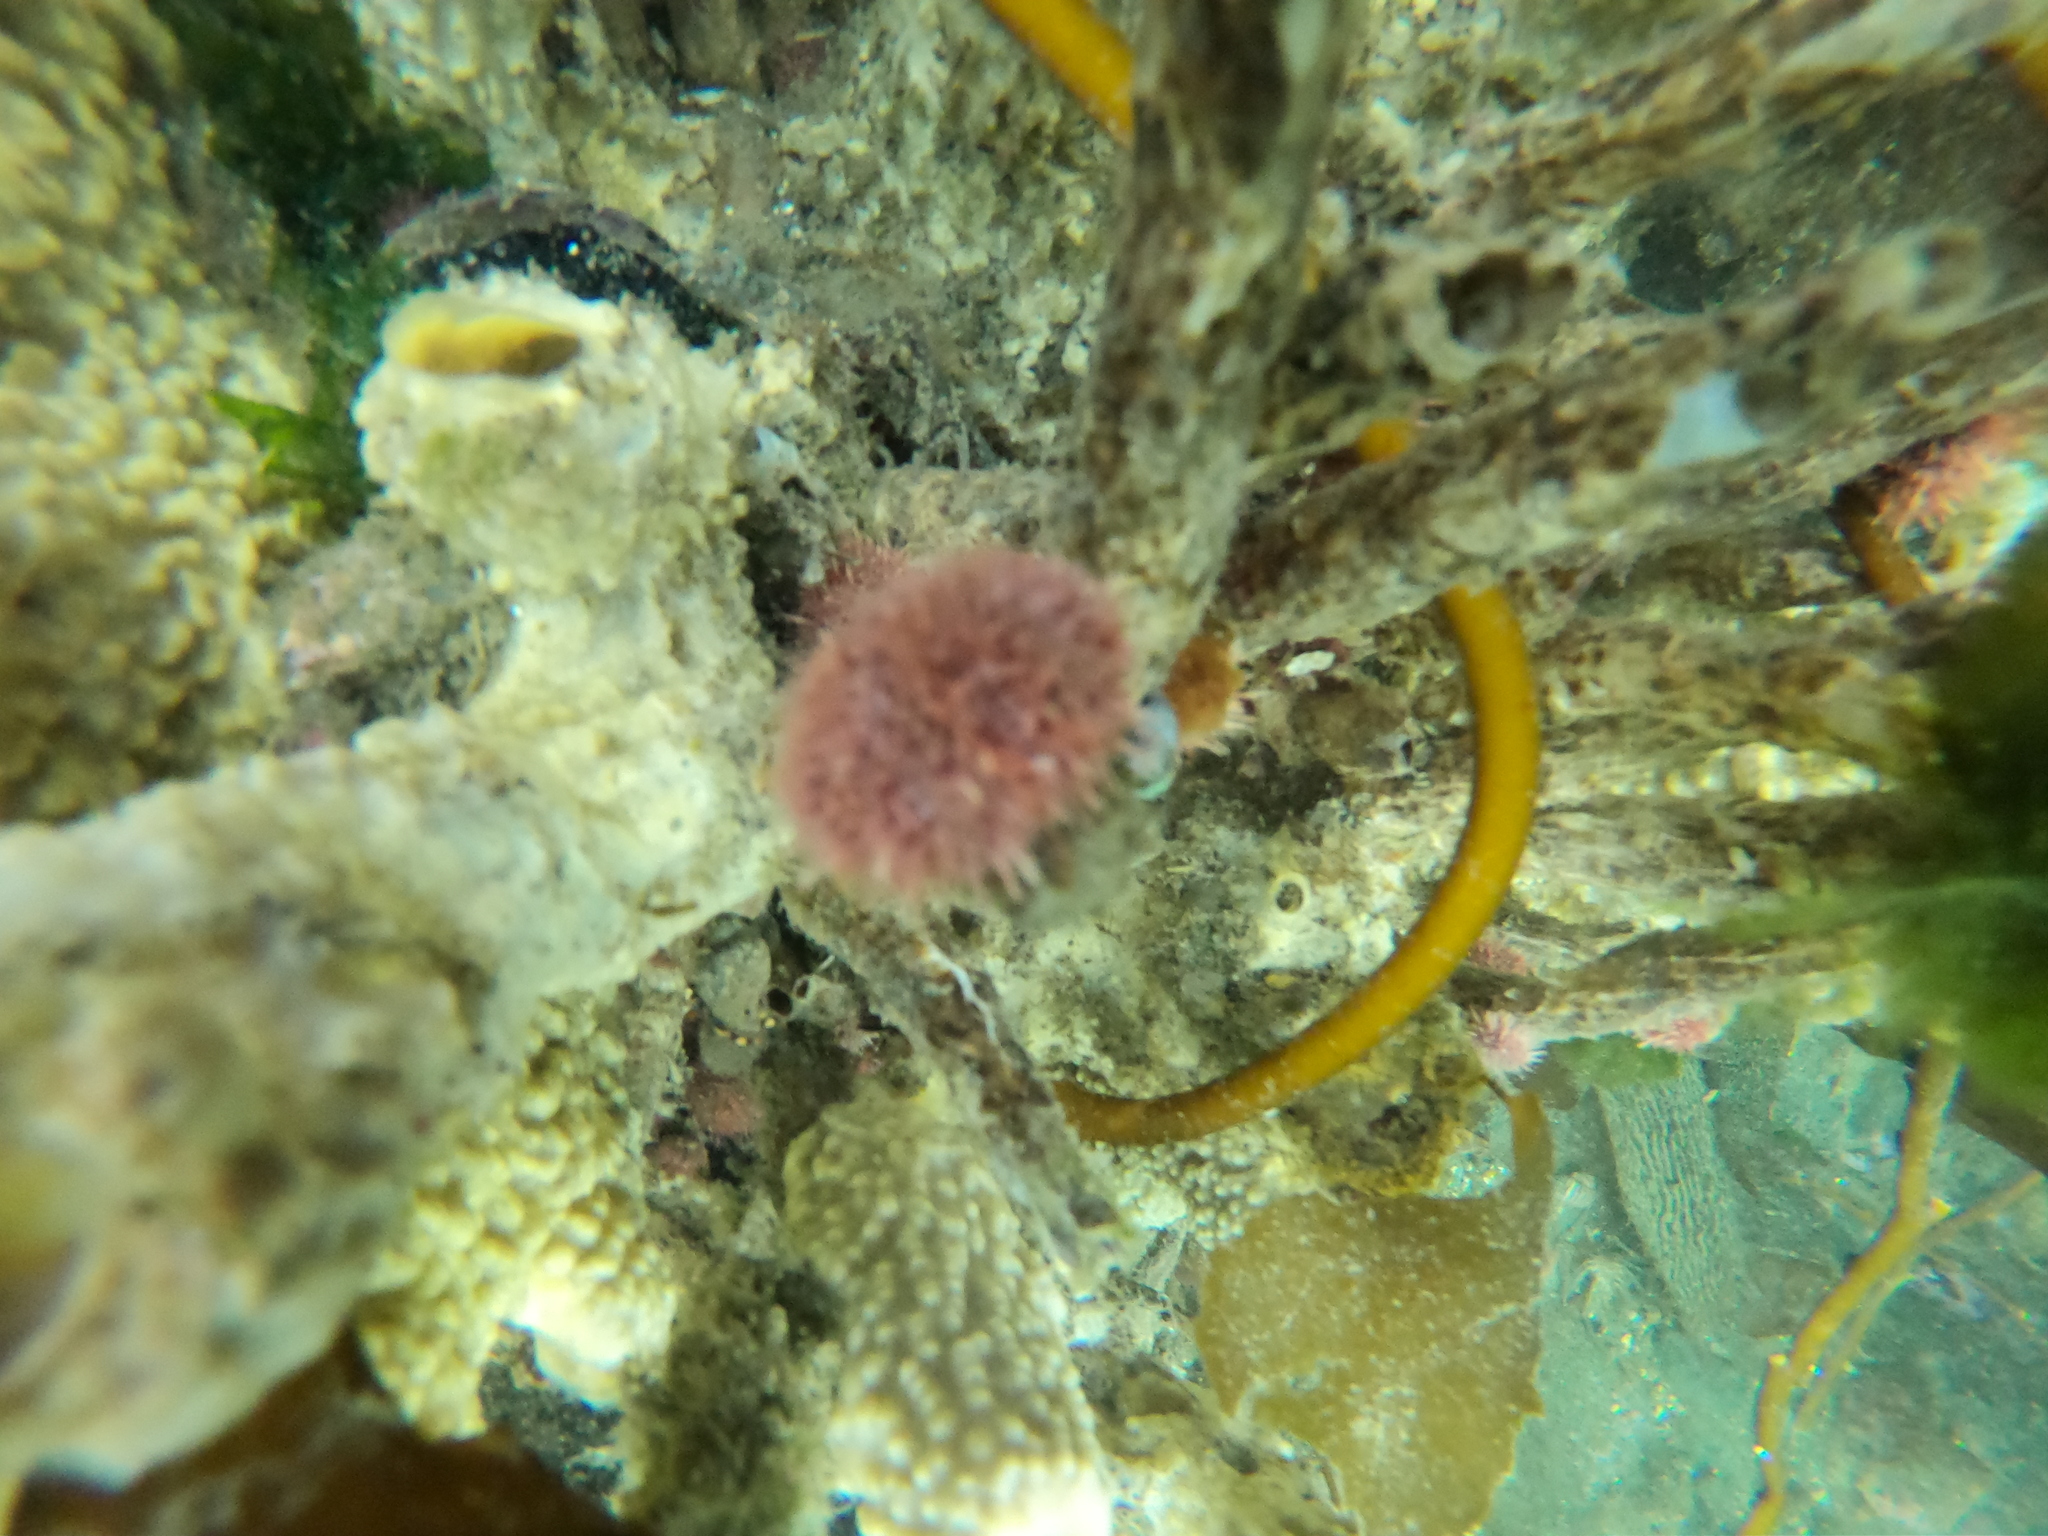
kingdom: Animalia
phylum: Echinodermata
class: Echinoidea
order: Camarodonta
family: Temnopleuridae
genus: Pseudechinus
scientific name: Pseudechinus magellanicus
